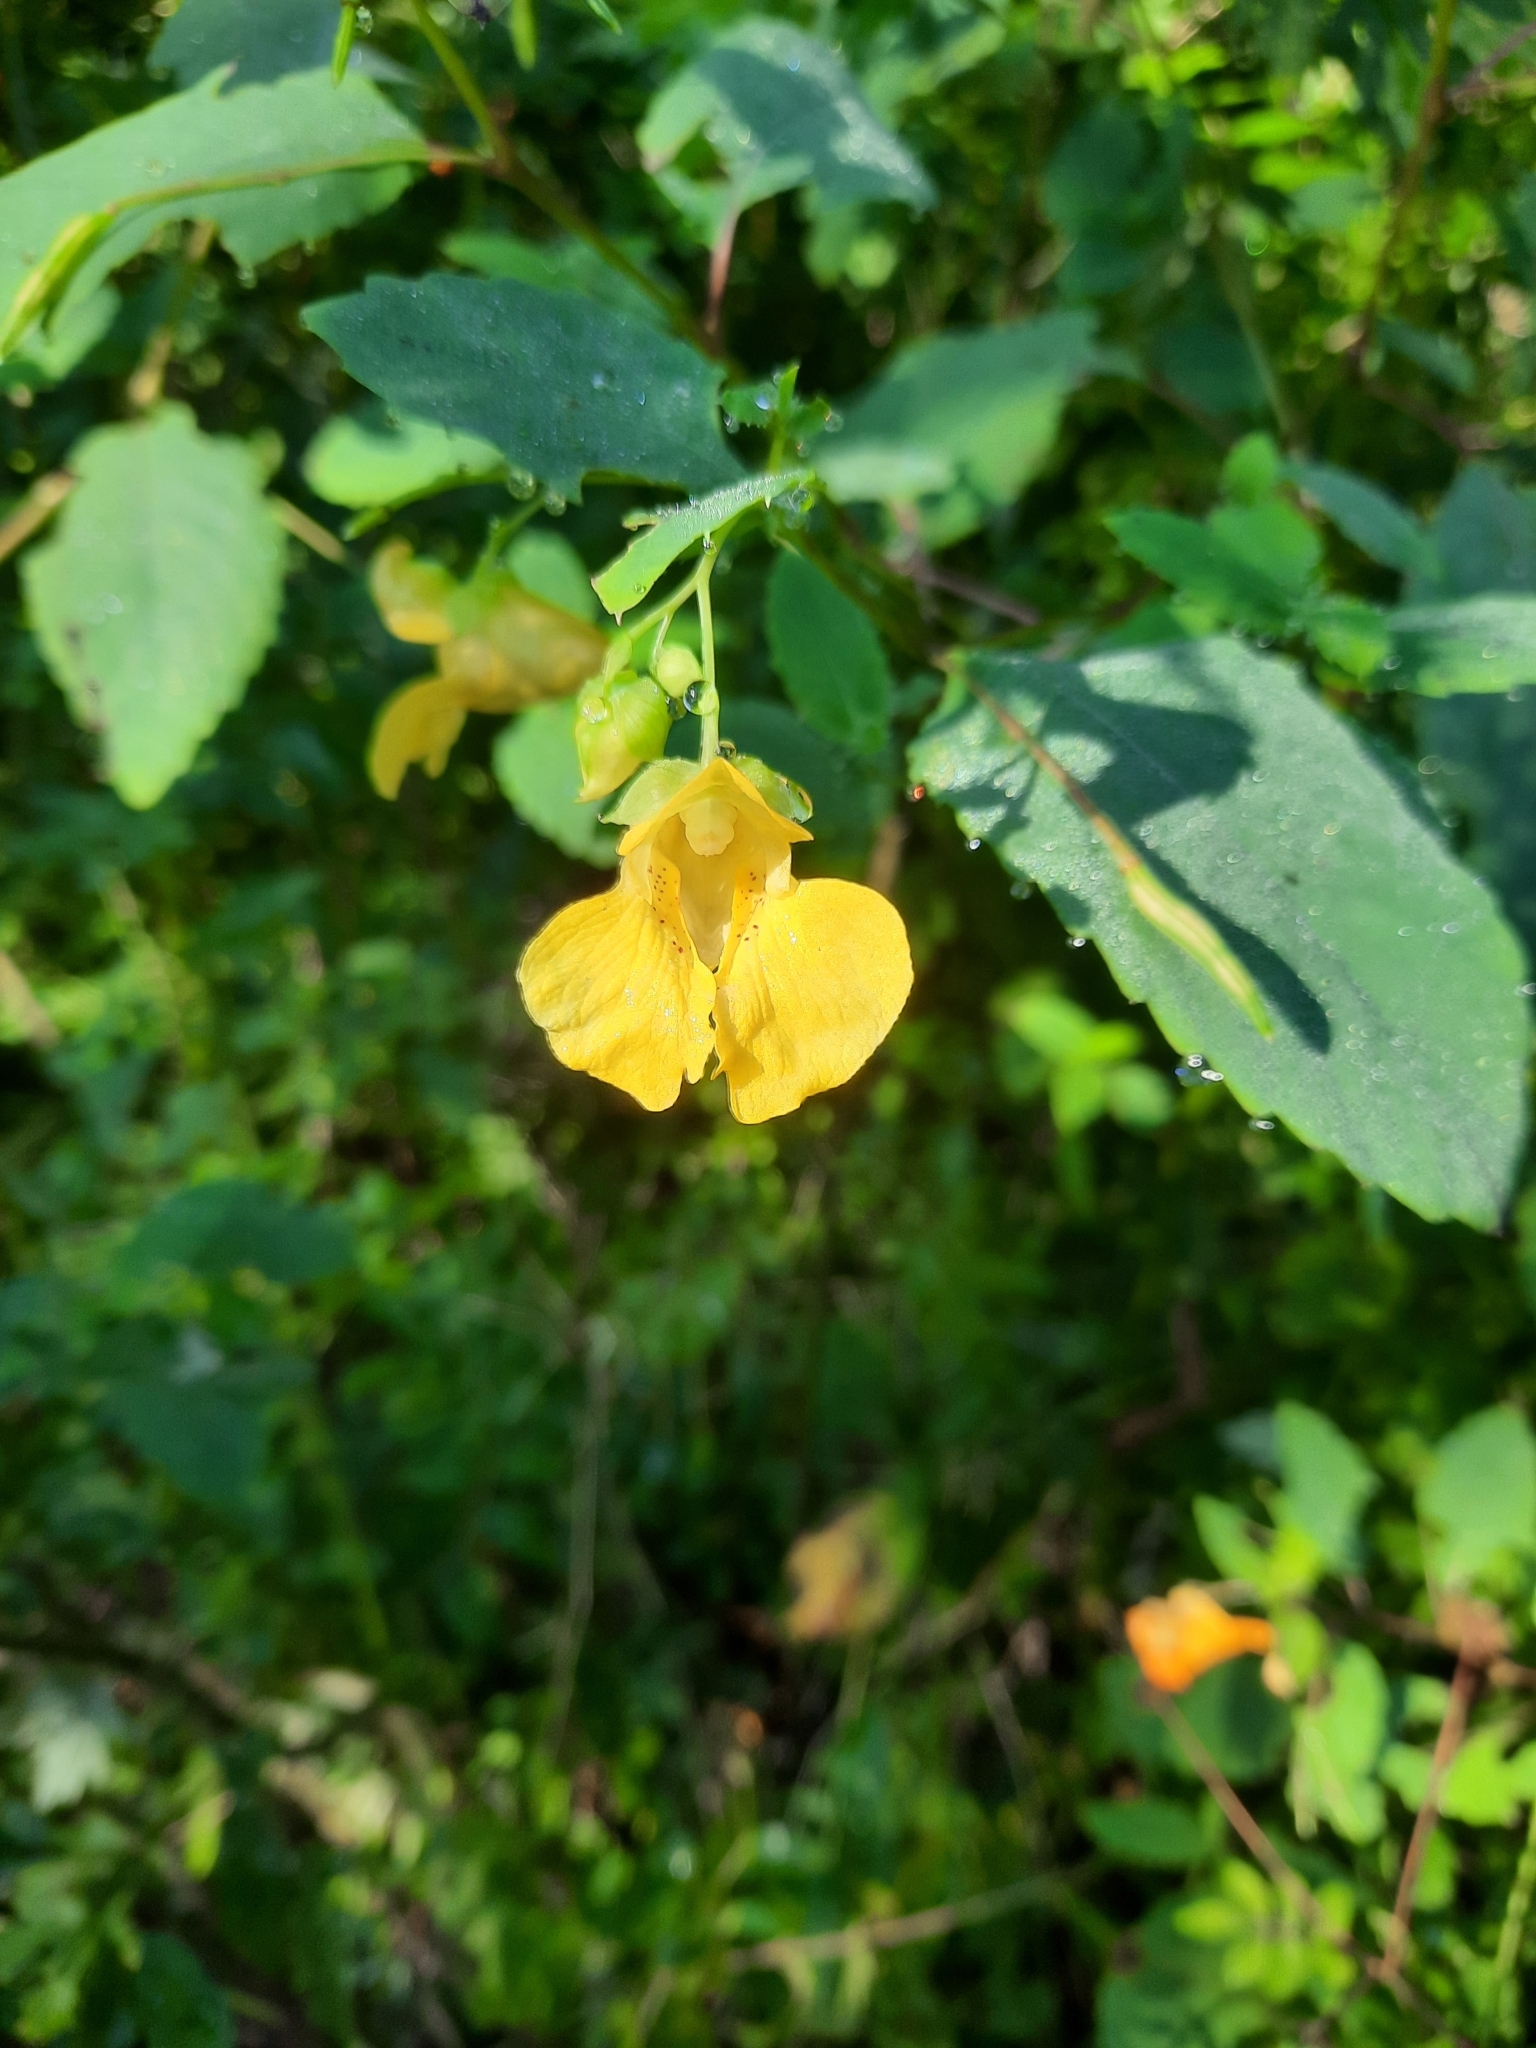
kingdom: Plantae
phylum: Tracheophyta
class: Magnoliopsida
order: Ericales
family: Balsaminaceae
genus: Impatiens
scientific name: Impatiens pallida
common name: Pale snapweed
